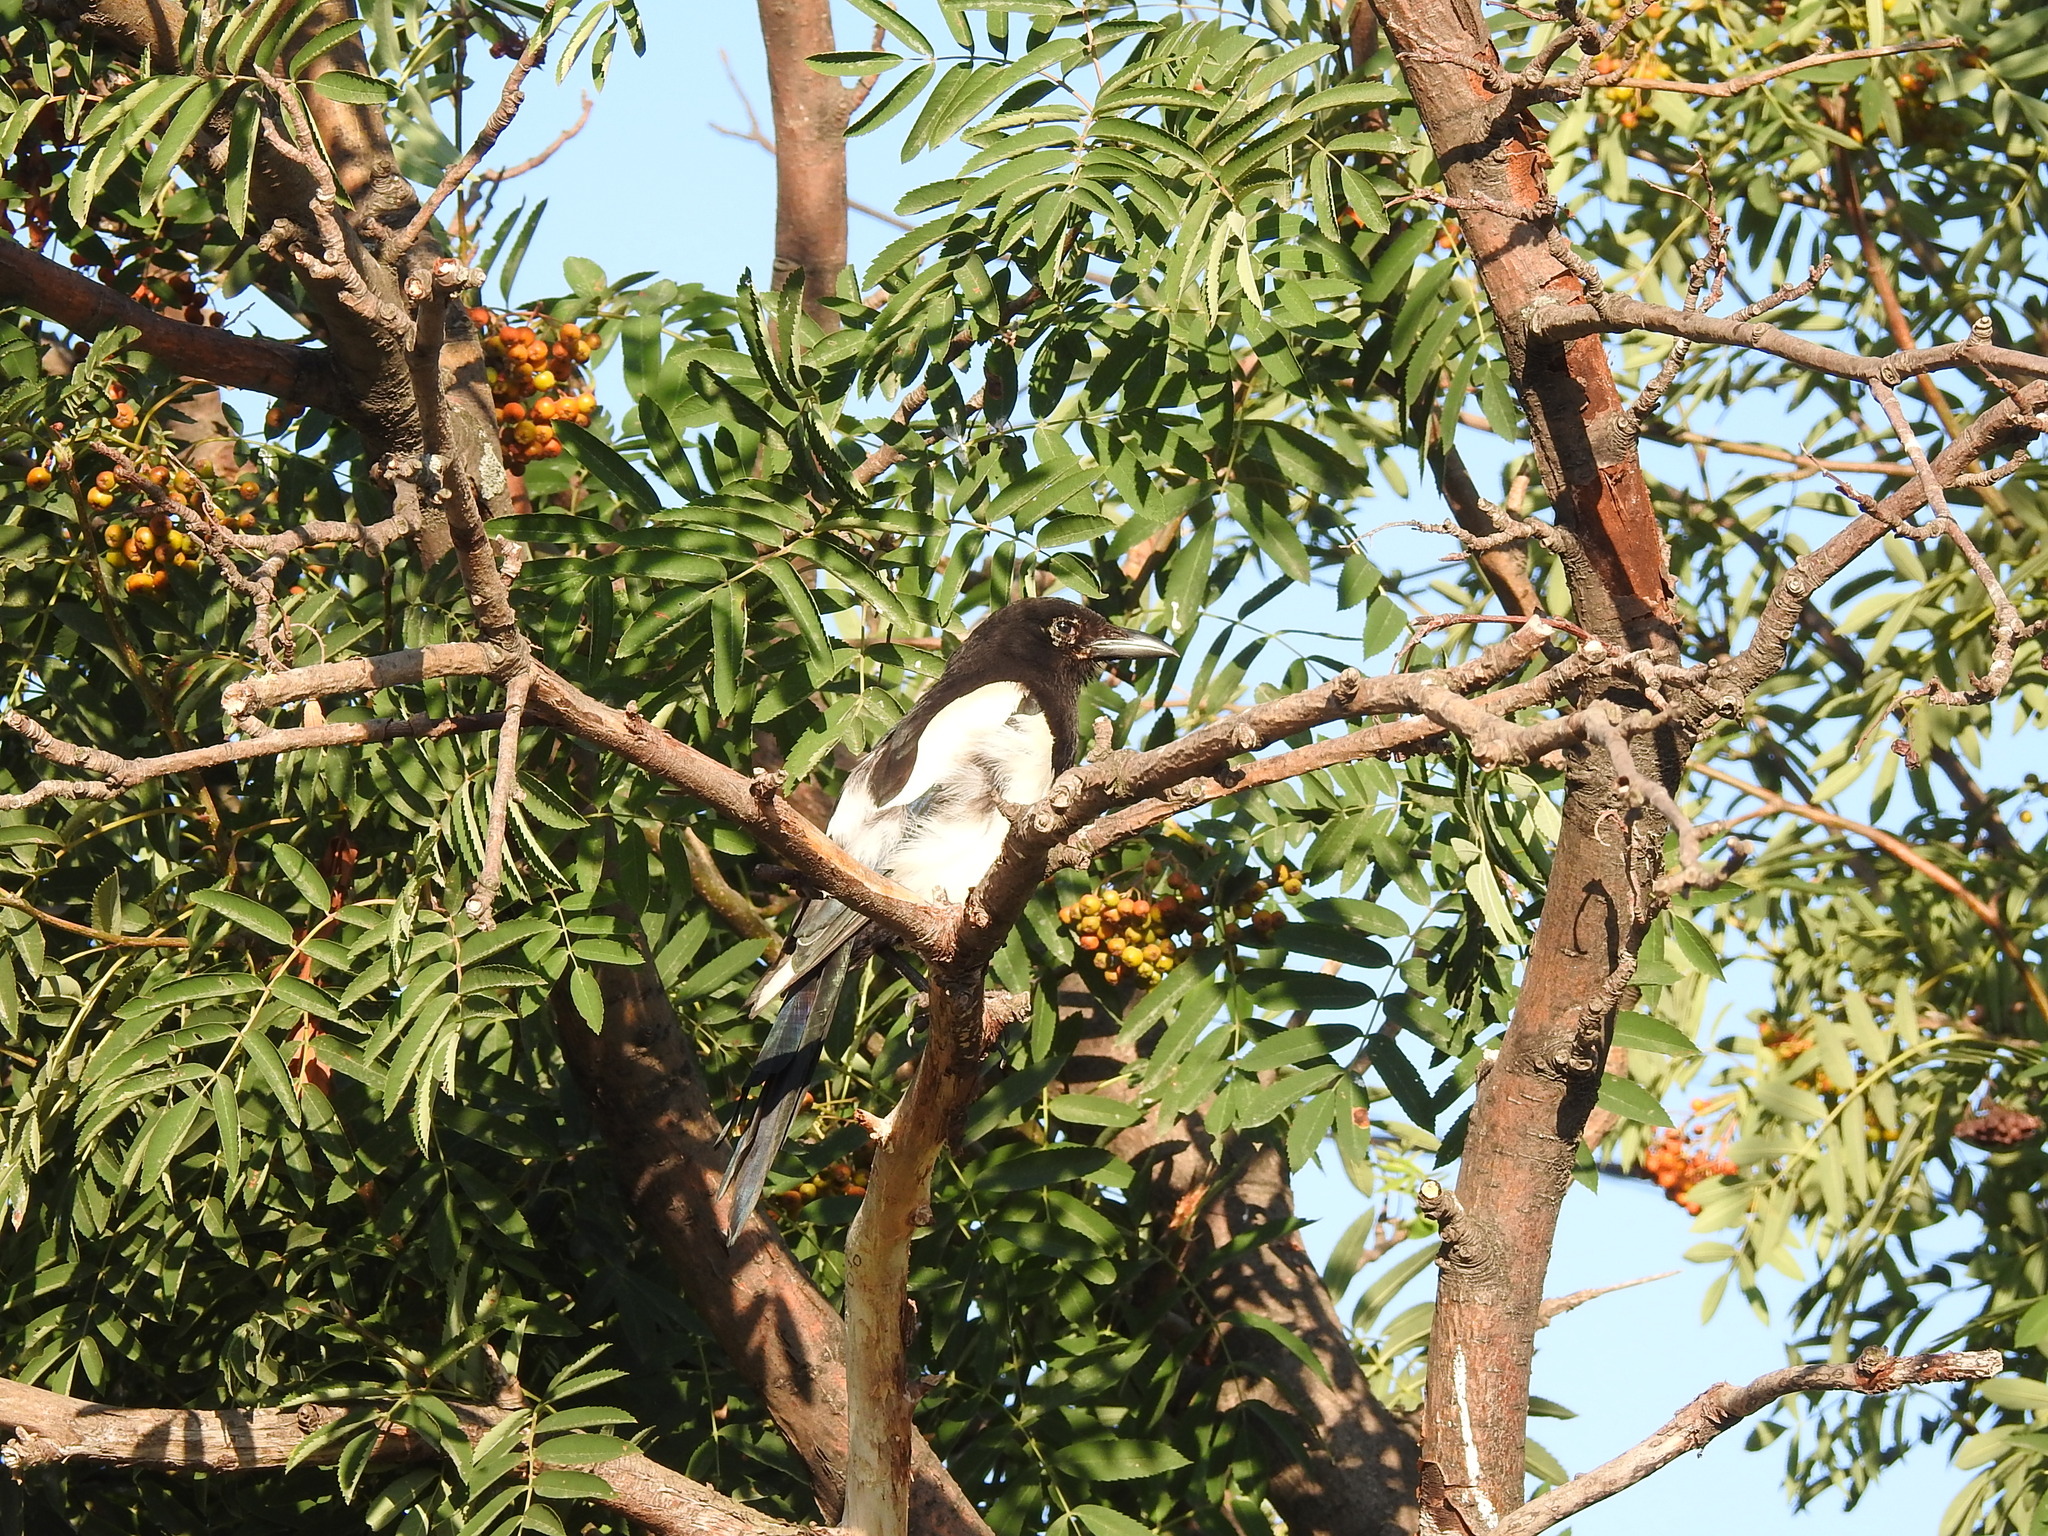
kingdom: Animalia
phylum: Chordata
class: Aves
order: Passeriformes
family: Corvidae
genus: Pica
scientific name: Pica pica
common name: Eurasian magpie
